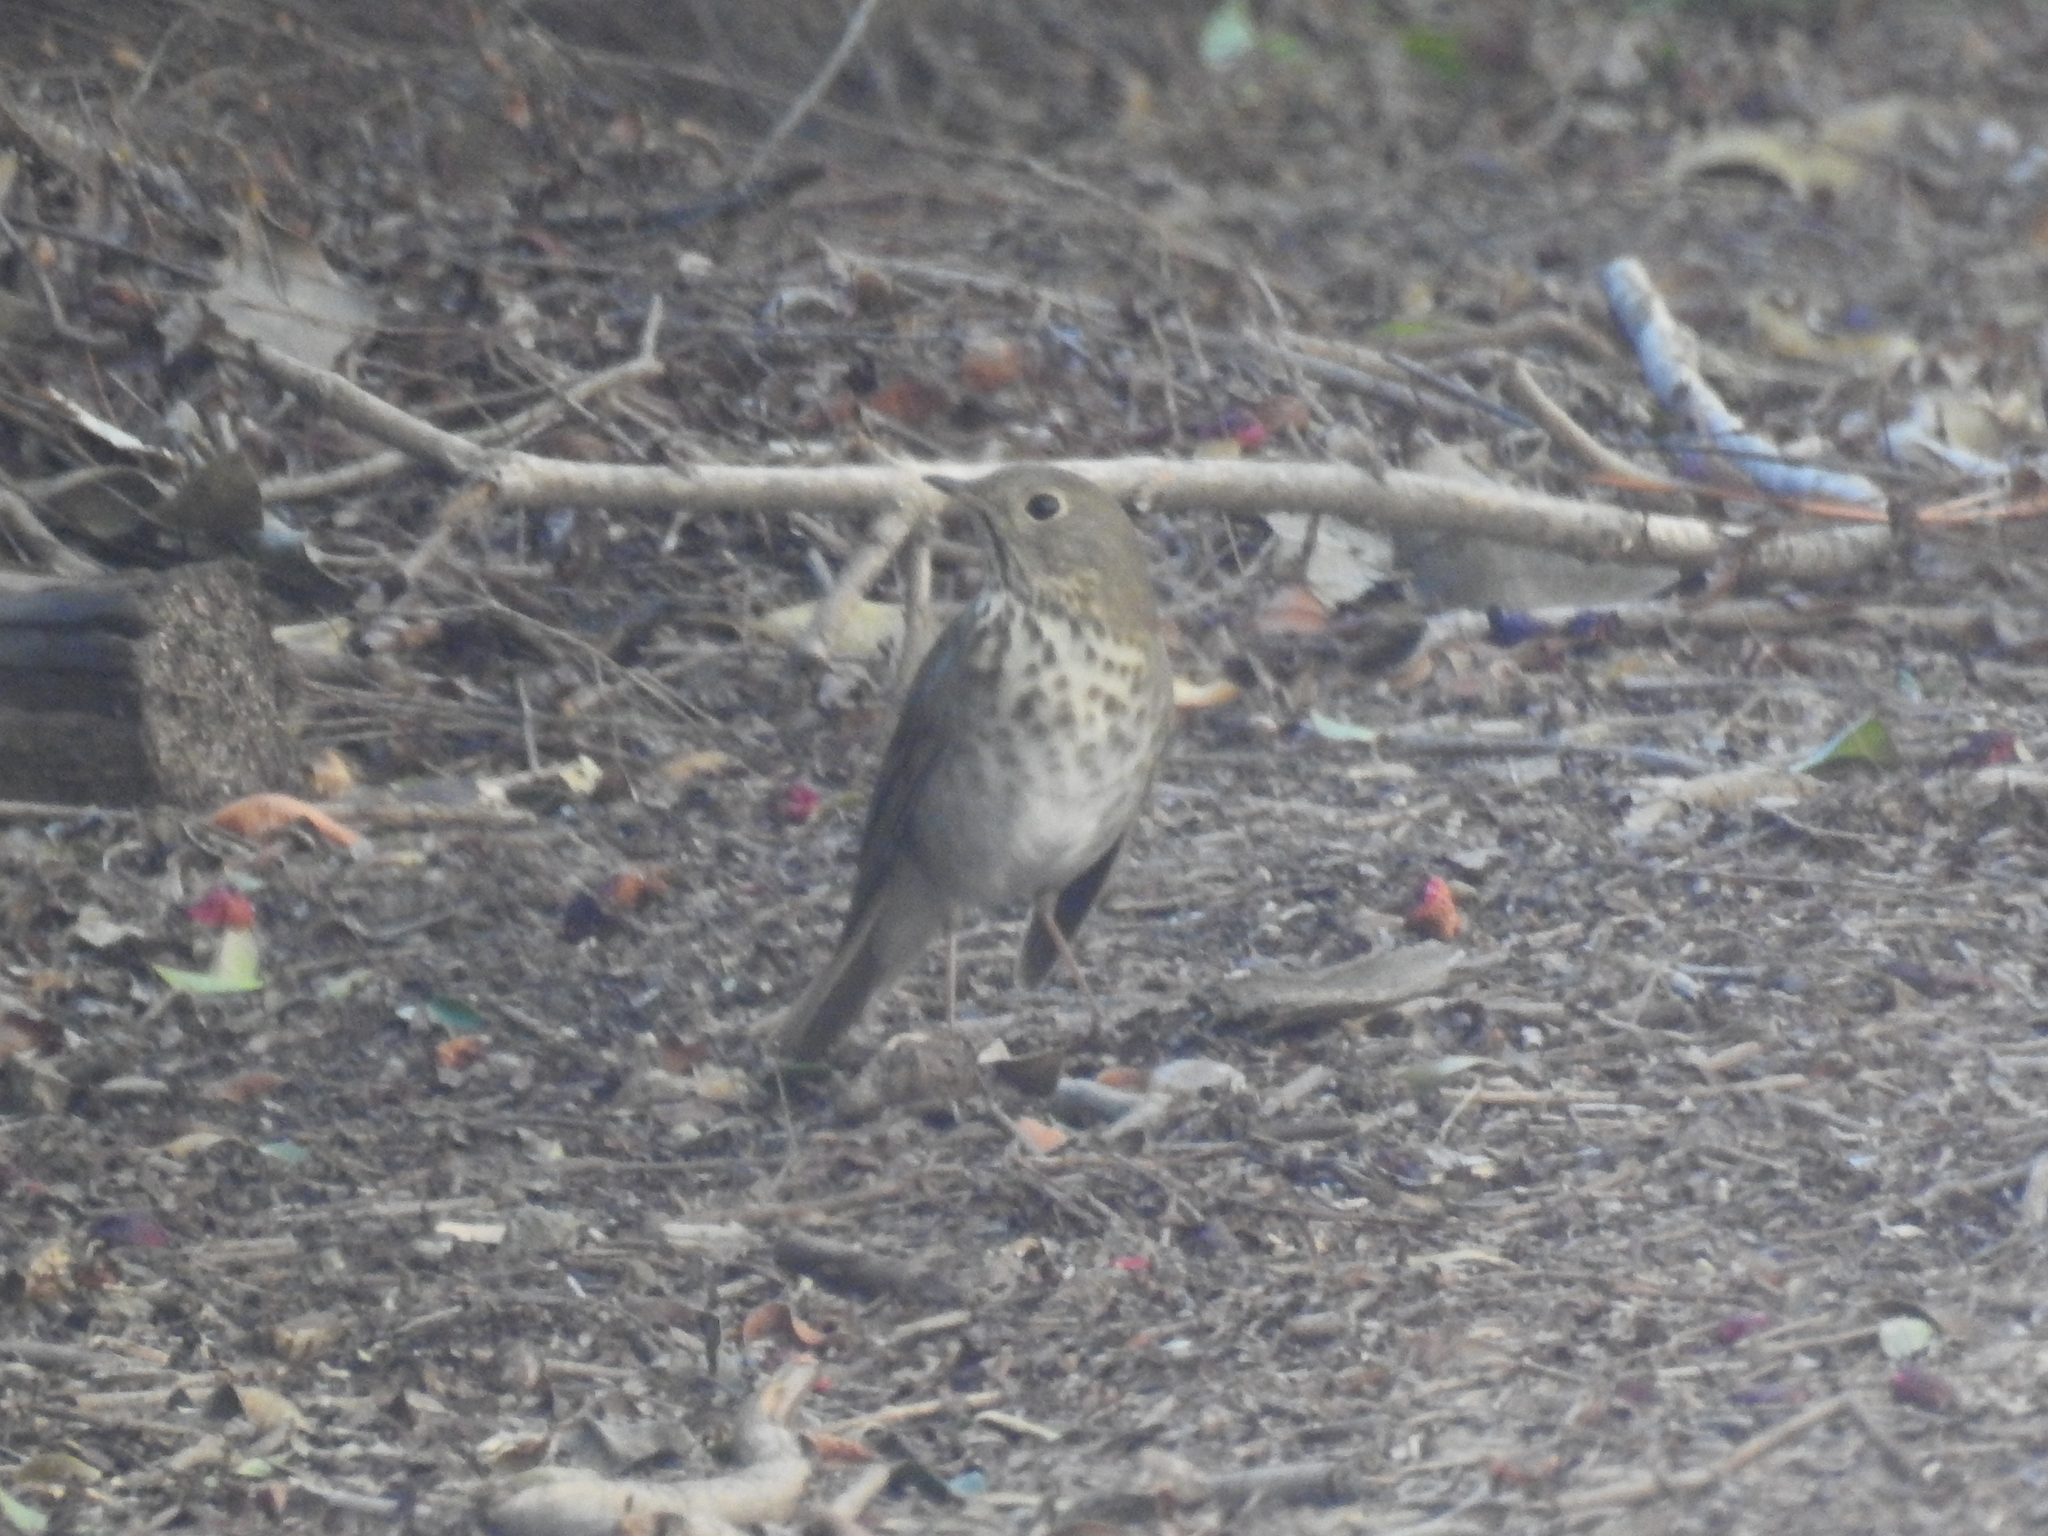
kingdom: Animalia
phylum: Chordata
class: Aves
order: Passeriformes
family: Turdidae
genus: Catharus
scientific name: Catharus guttatus
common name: Hermit thrush
